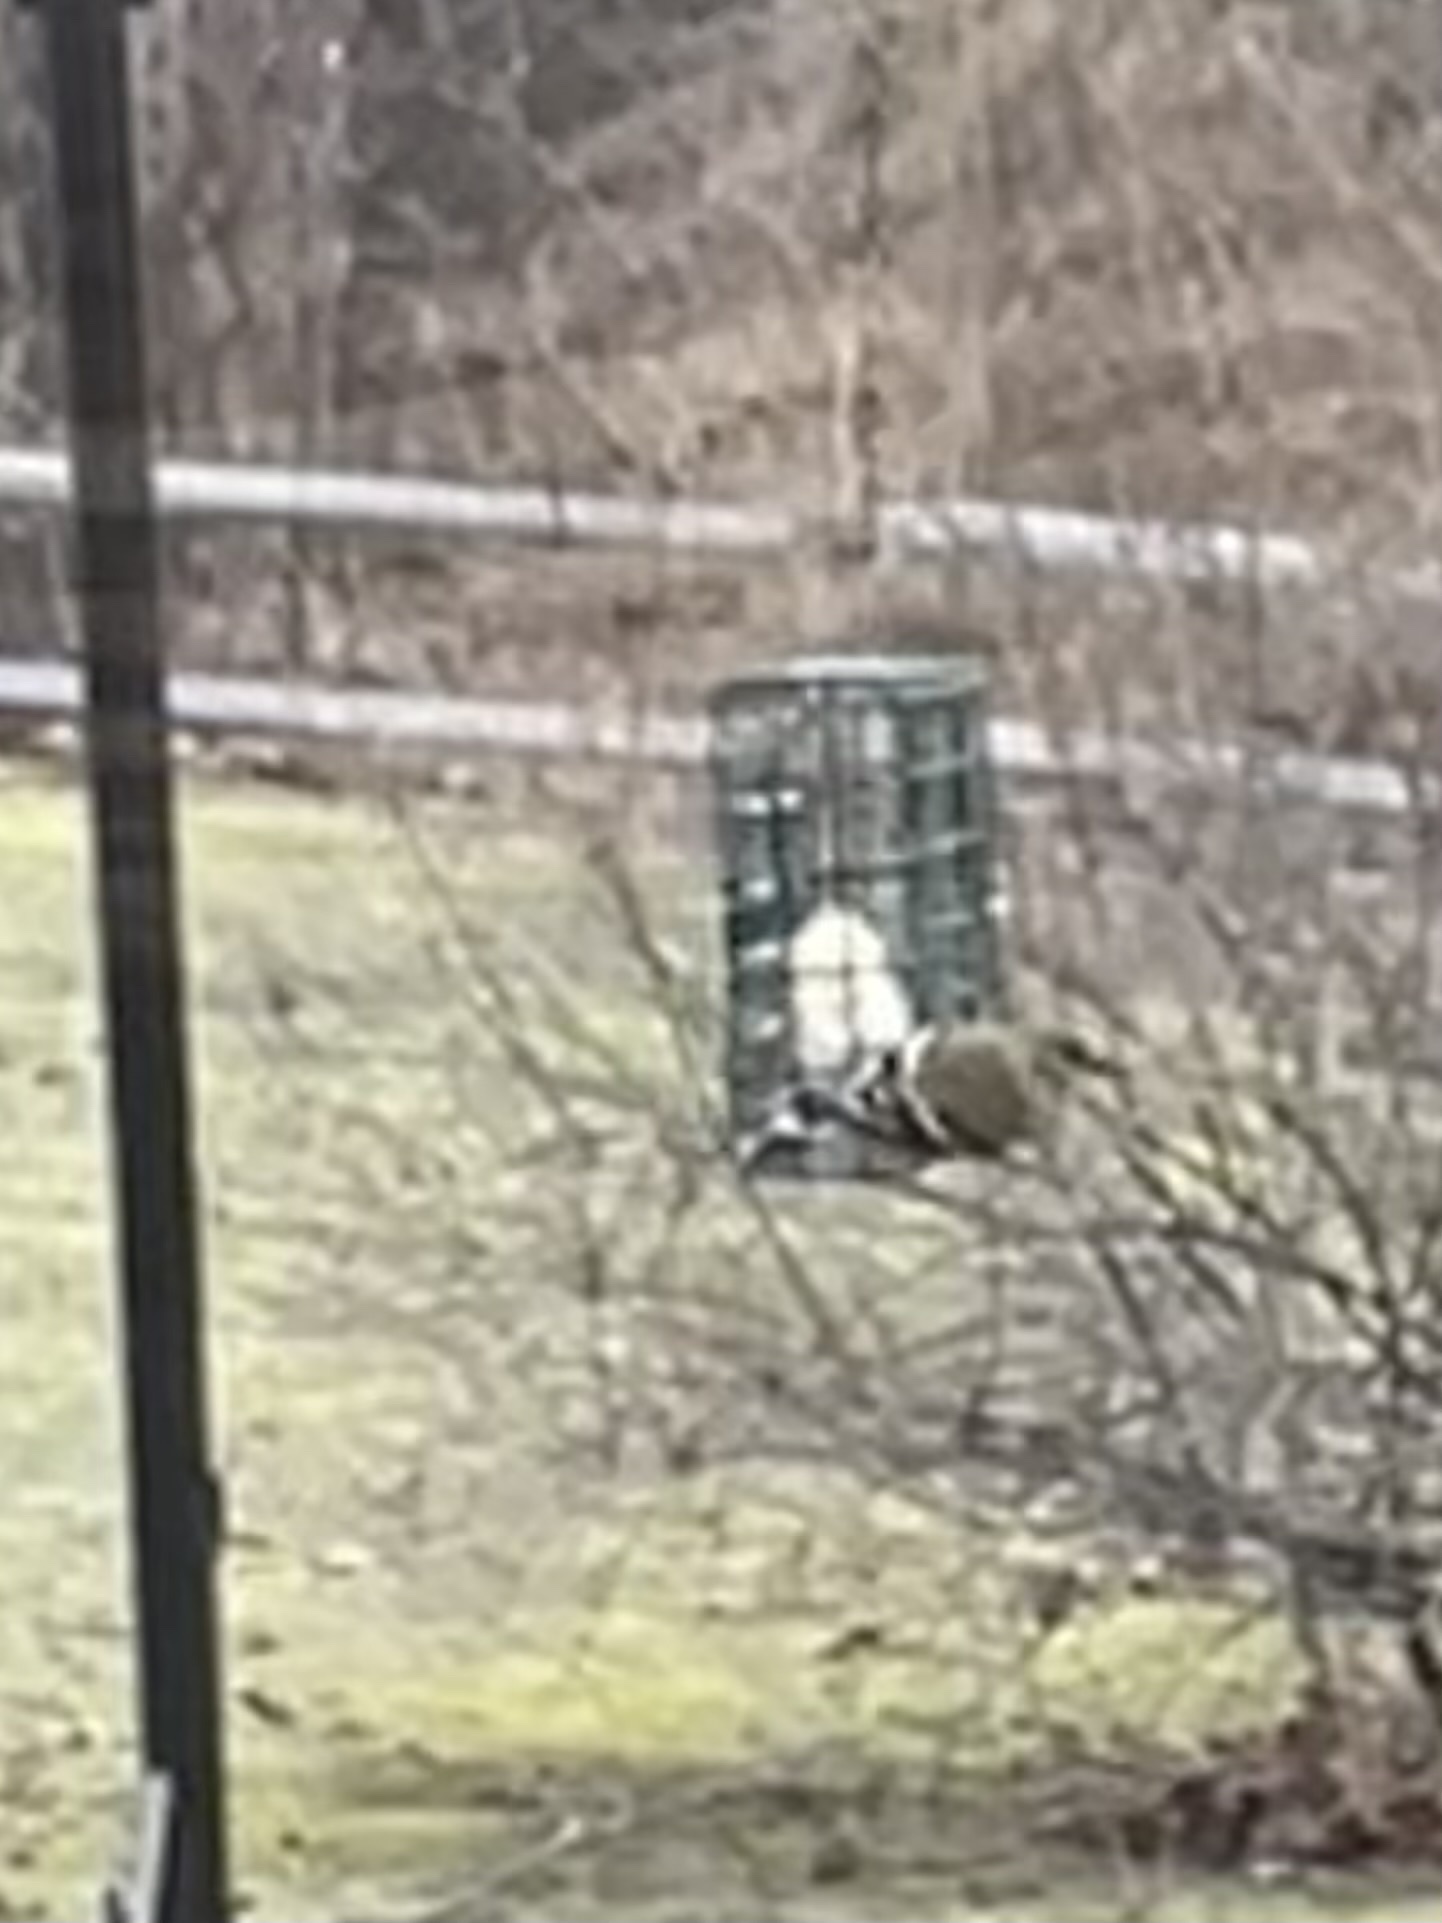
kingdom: Animalia
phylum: Chordata
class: Aves
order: Passeriformes
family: Fringillidae
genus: Spinus
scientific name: Spinus tristis
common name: American goldfinch
